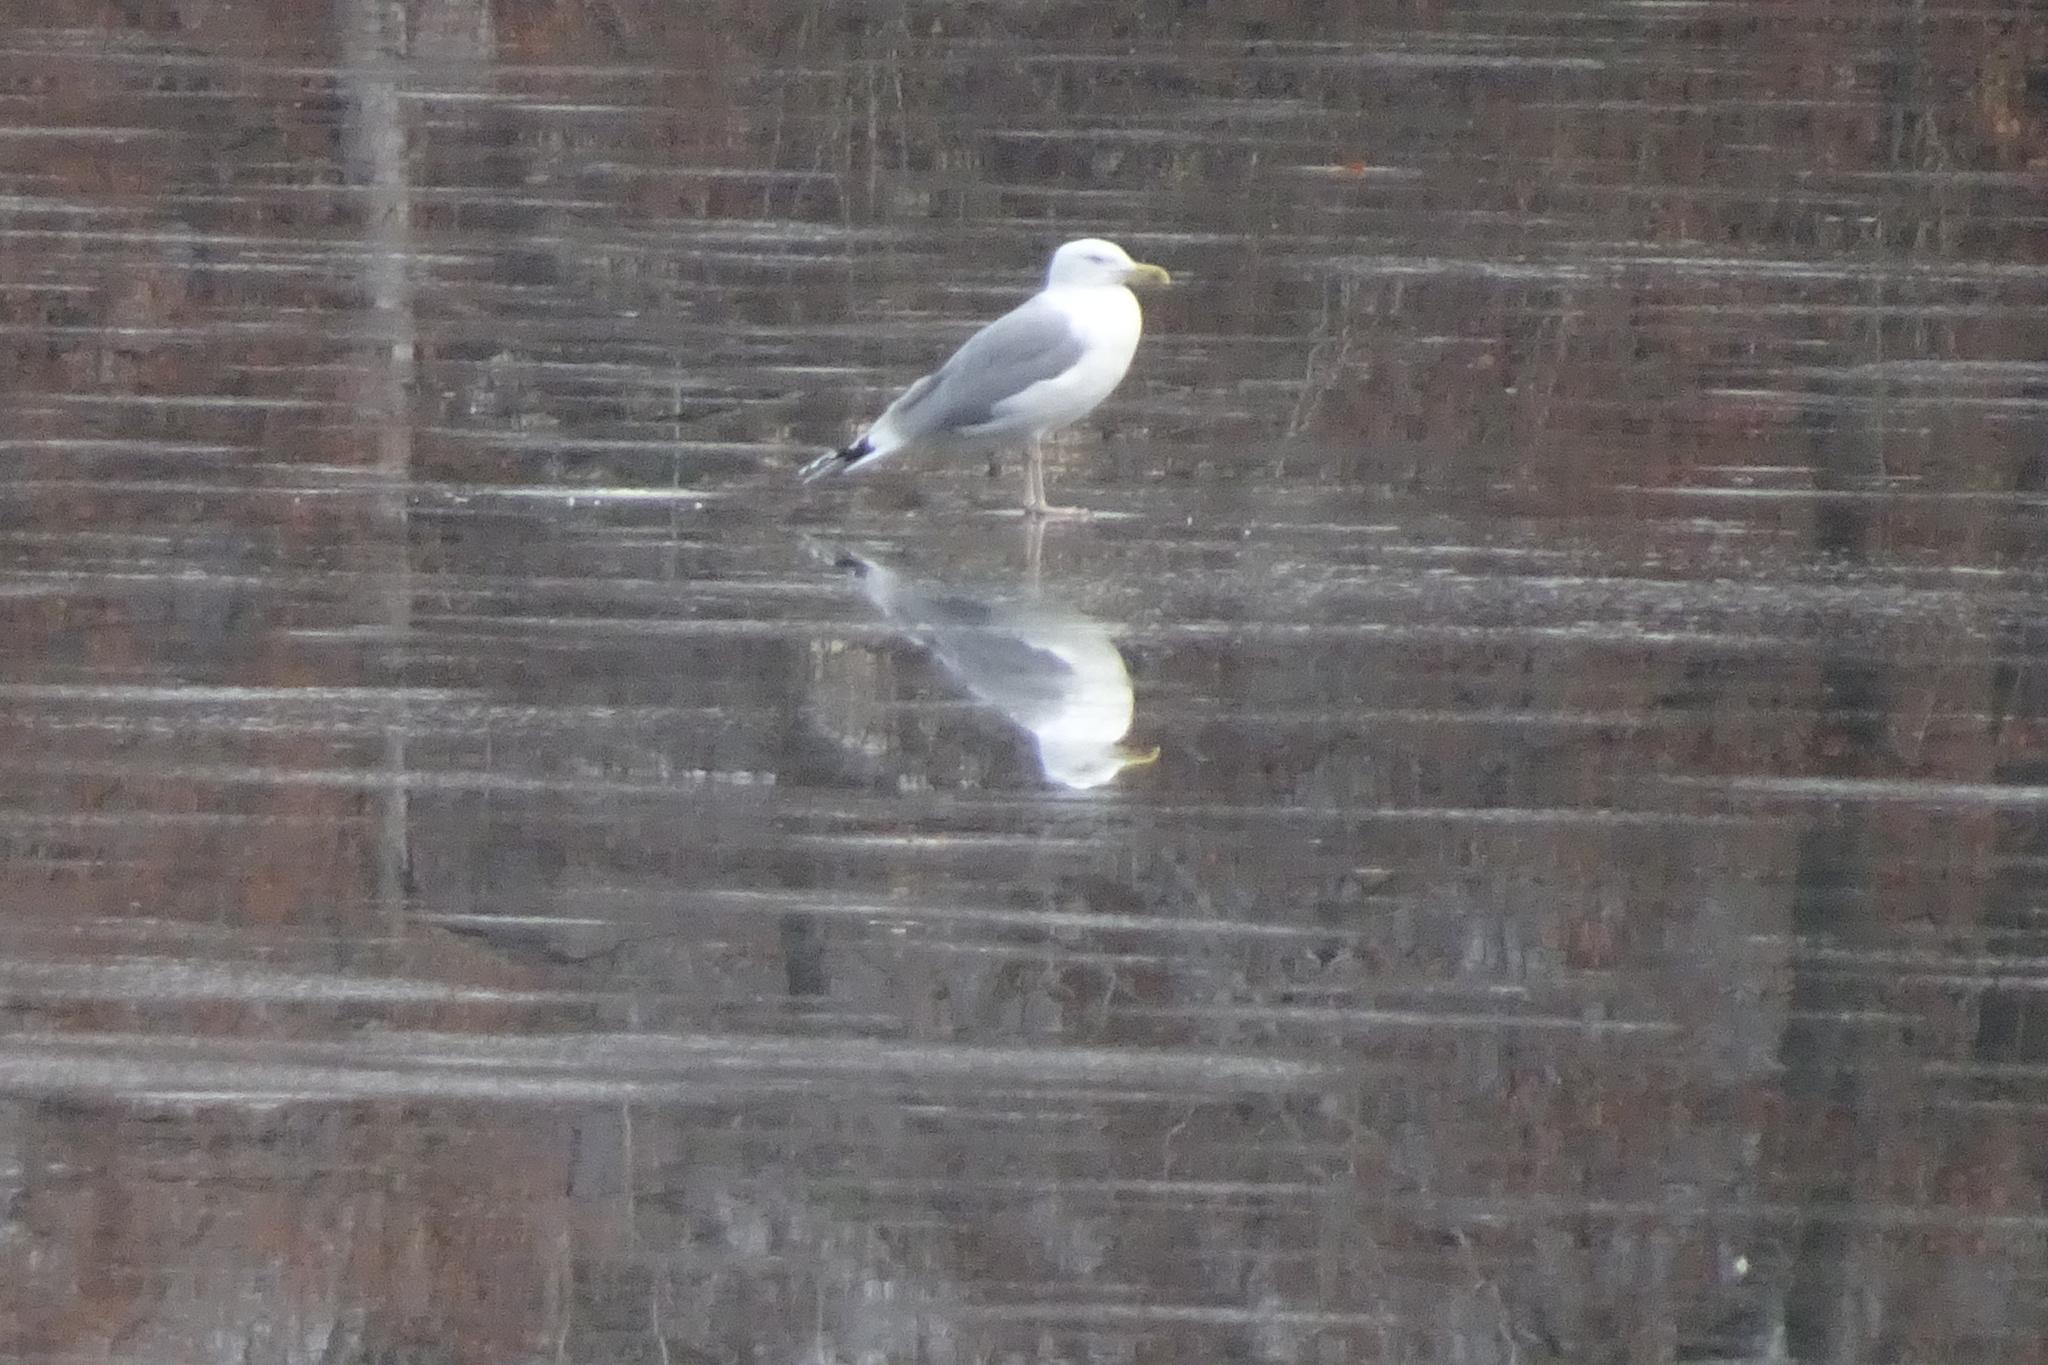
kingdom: Animalia
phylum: Chordata
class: Aves
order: Charadriiformes
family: Laridae
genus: Larus
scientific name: Larus cachinnans
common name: Caspian gull
